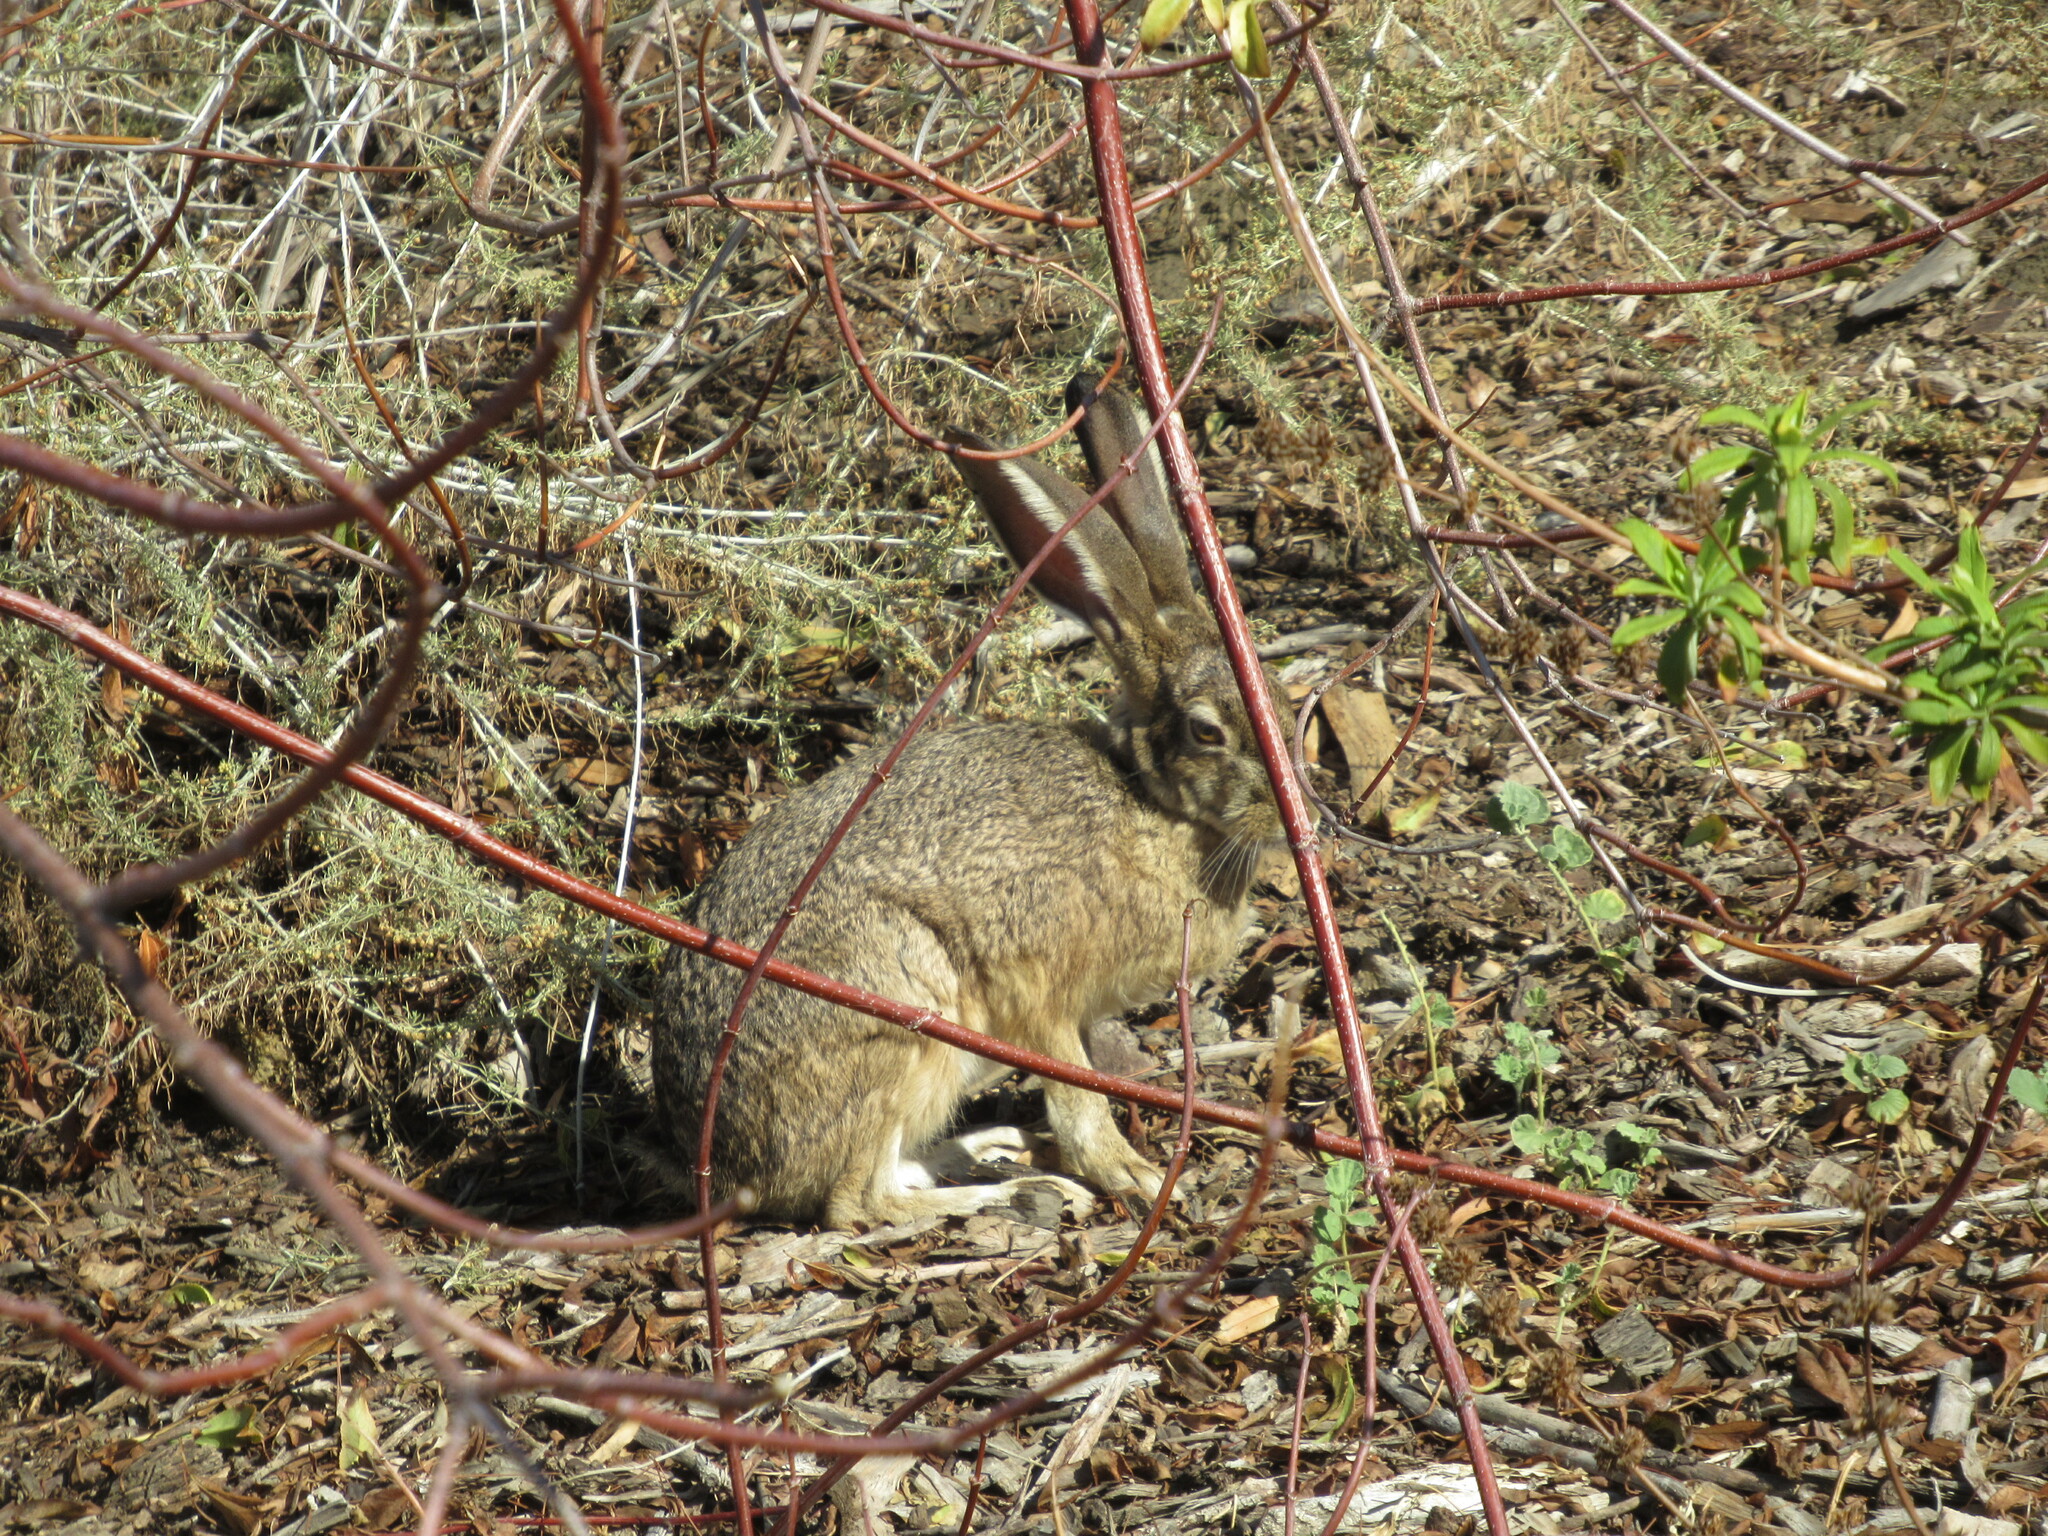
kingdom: Animalia
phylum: Chordata
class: Mammalia
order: Lagomorpha
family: Leporidae
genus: Lepus
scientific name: Lepus californicus
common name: Black-tailed jackrabbit
